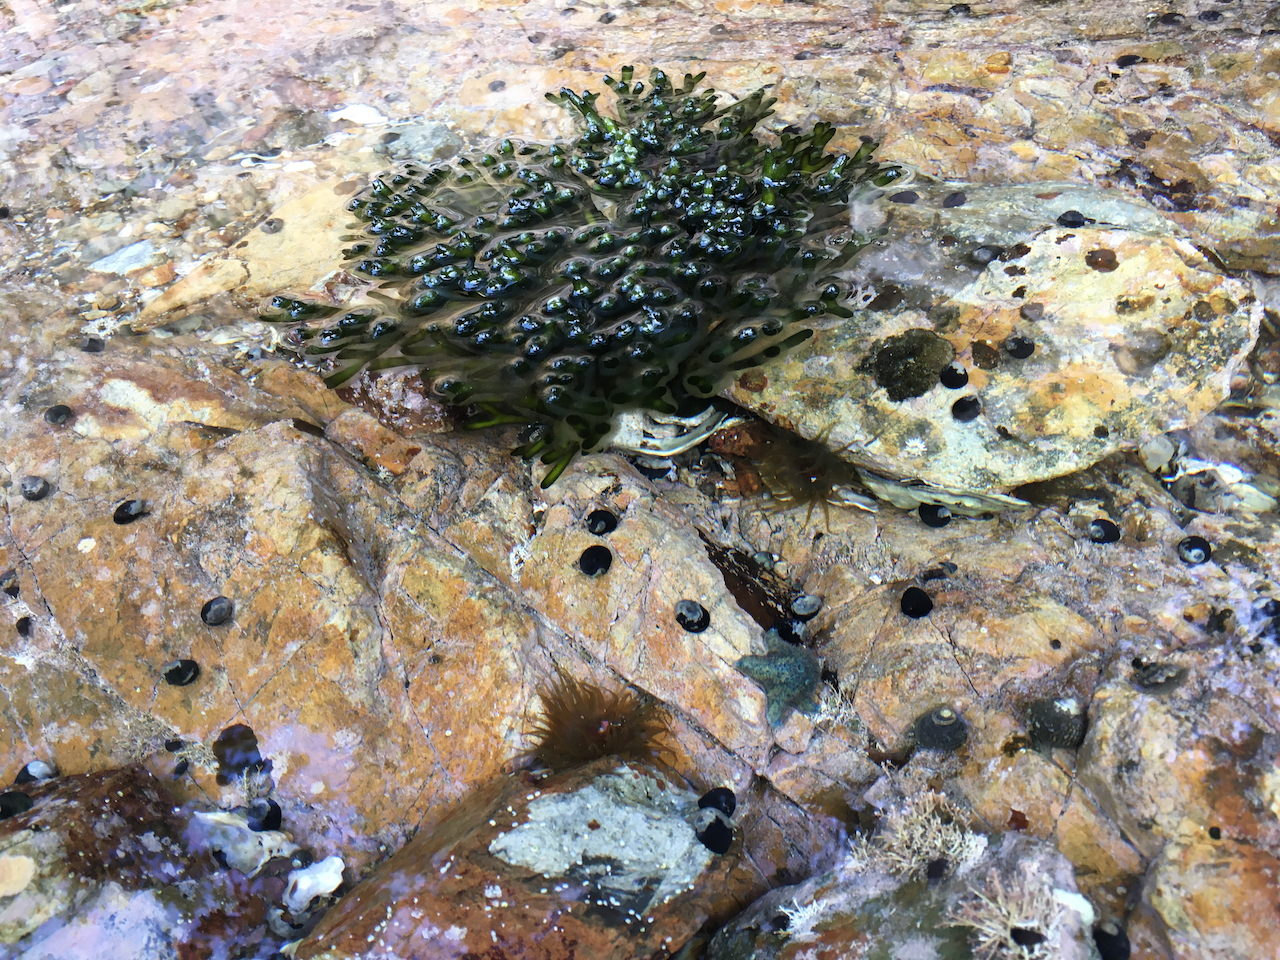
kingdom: Plantae
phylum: Chlorophyta
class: Ulvophyceae
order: Bryopsidales
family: Codiaceae
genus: Codium
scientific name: Codium fragile
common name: Dead man's fingers
